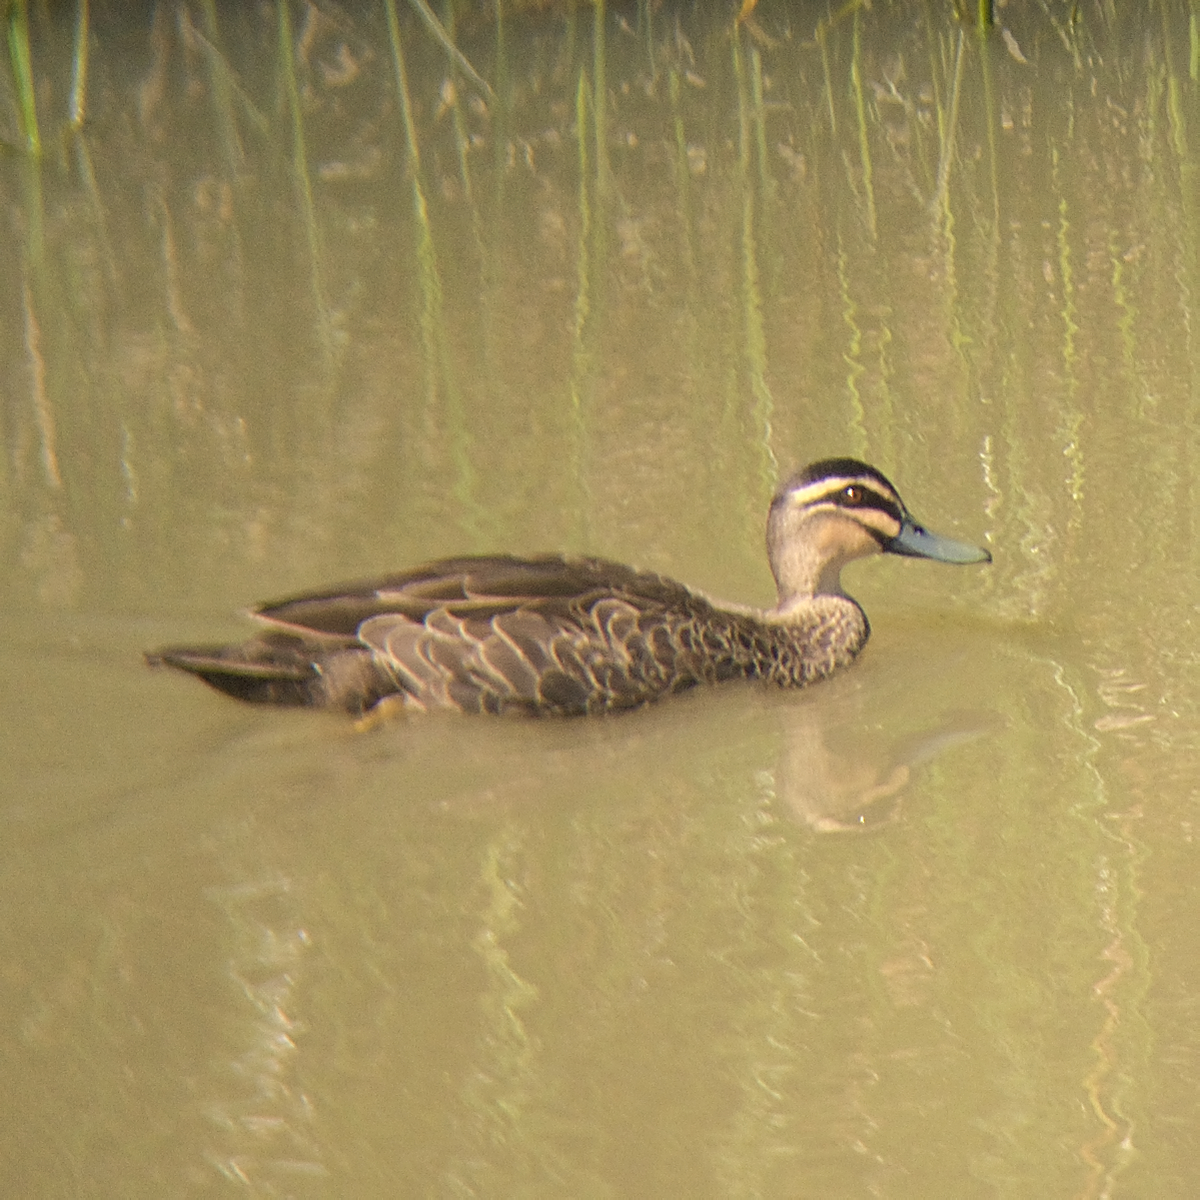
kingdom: Animalia
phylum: Chordata
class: Aves
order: Anseriformes
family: Anatidae
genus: Anas
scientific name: Anas superciliosa
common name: Pacific black duck
